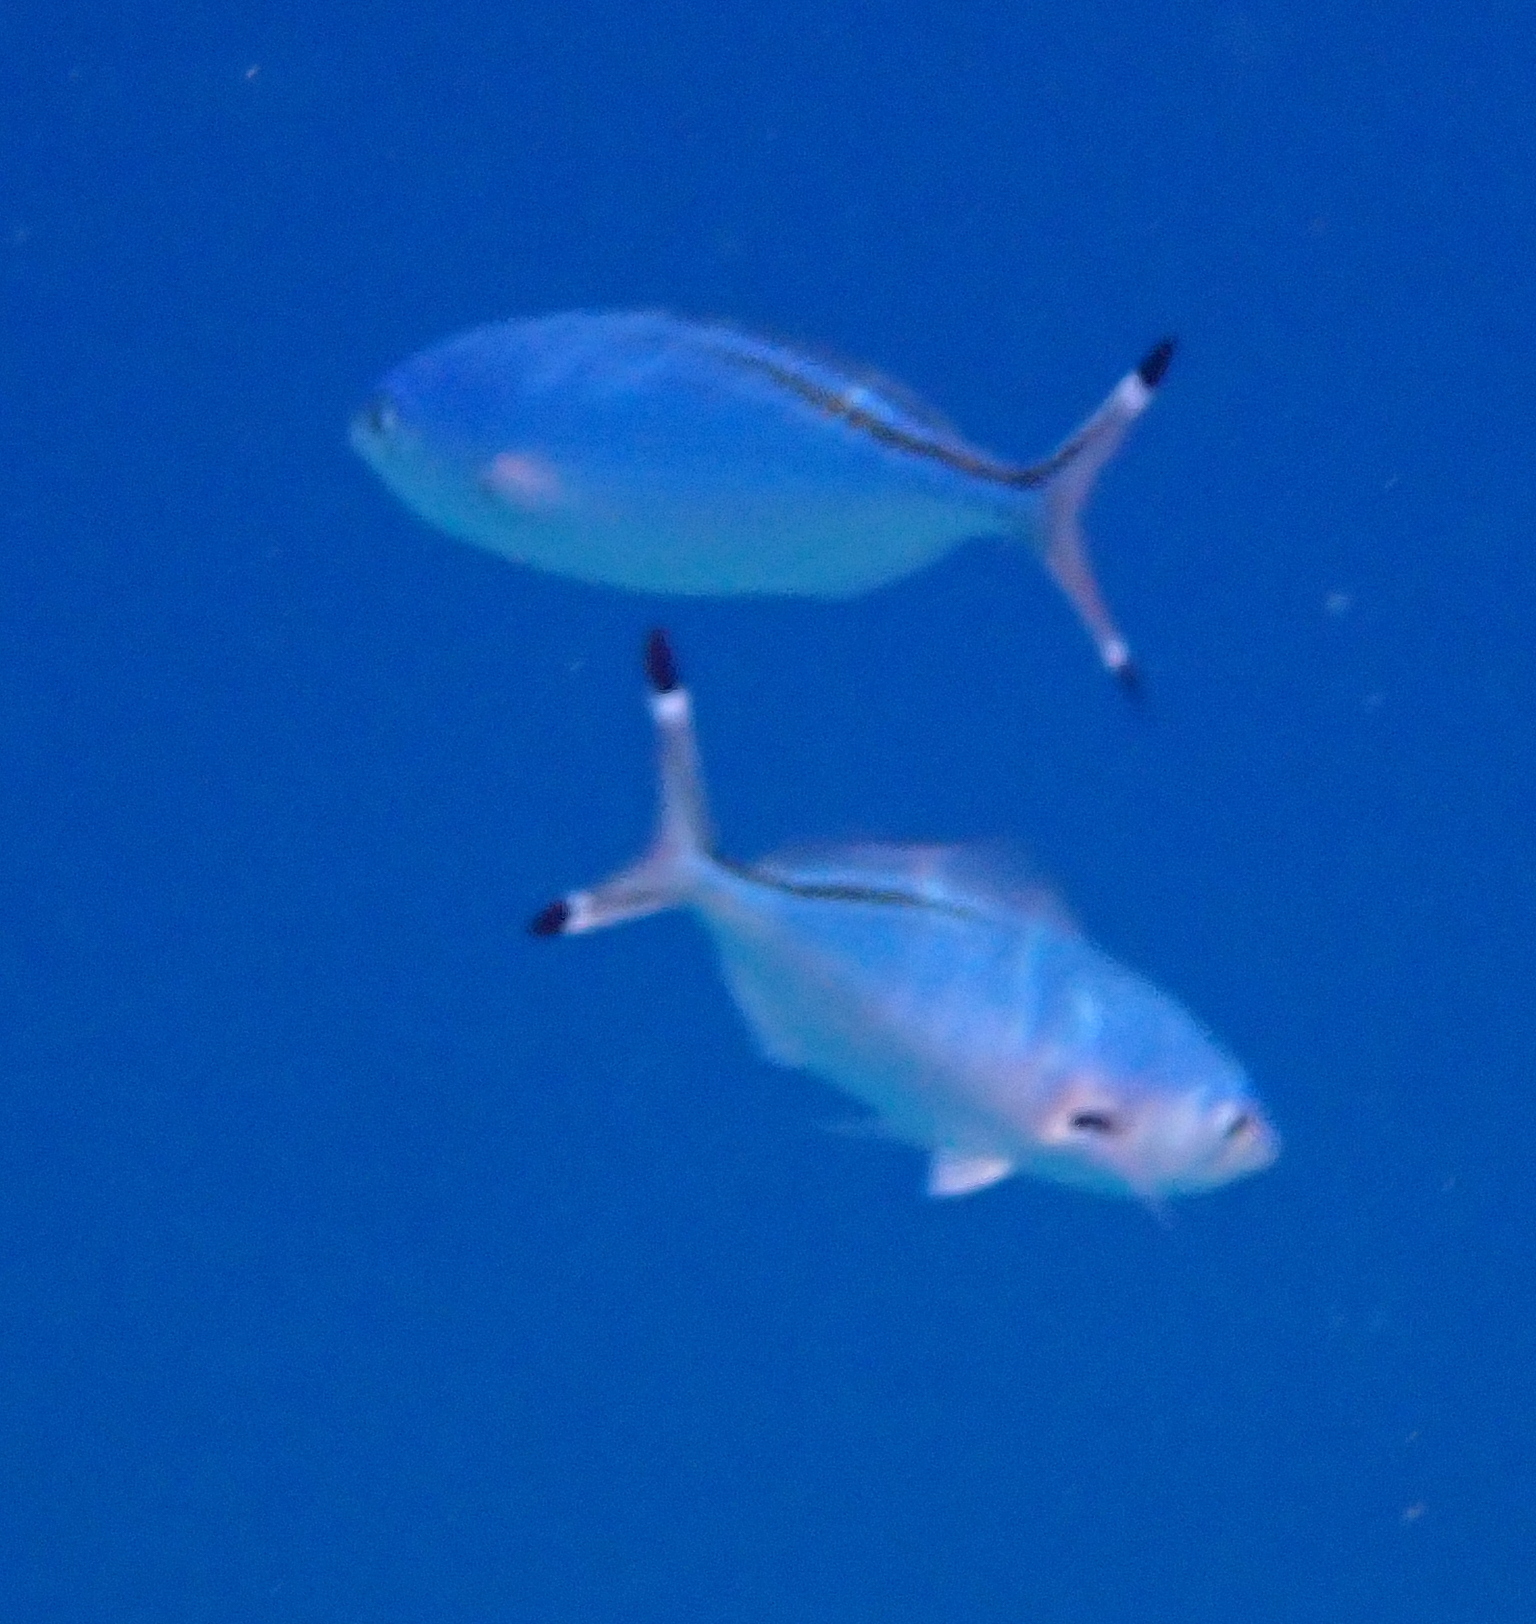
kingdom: Animalia
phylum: Chordata
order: Perciformes
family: Caesionidae
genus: Caesio
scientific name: Caesio suevica
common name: Suez fusilier
